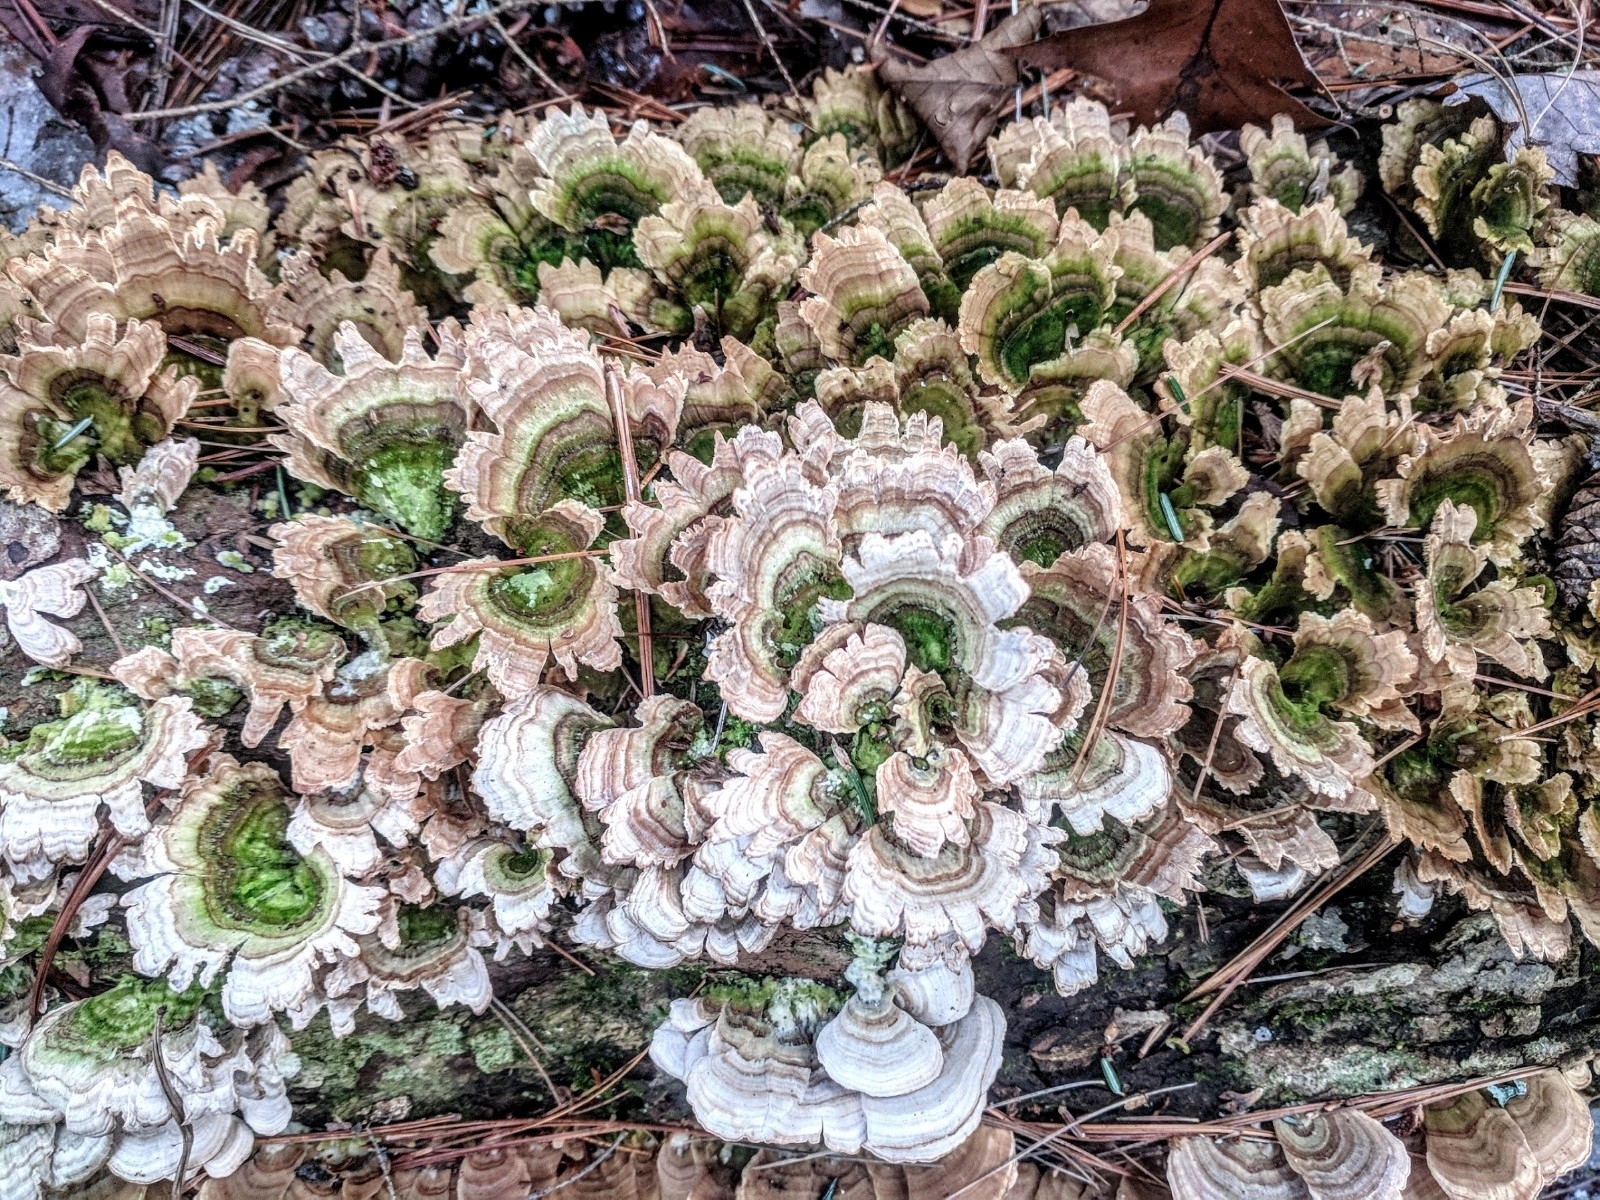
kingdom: Fungi
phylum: Basidiomycota
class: Agaricomycetes
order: Hymenochaetales
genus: Trichaptum
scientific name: Trichaptum biforme
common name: Violet-toothed polypore
